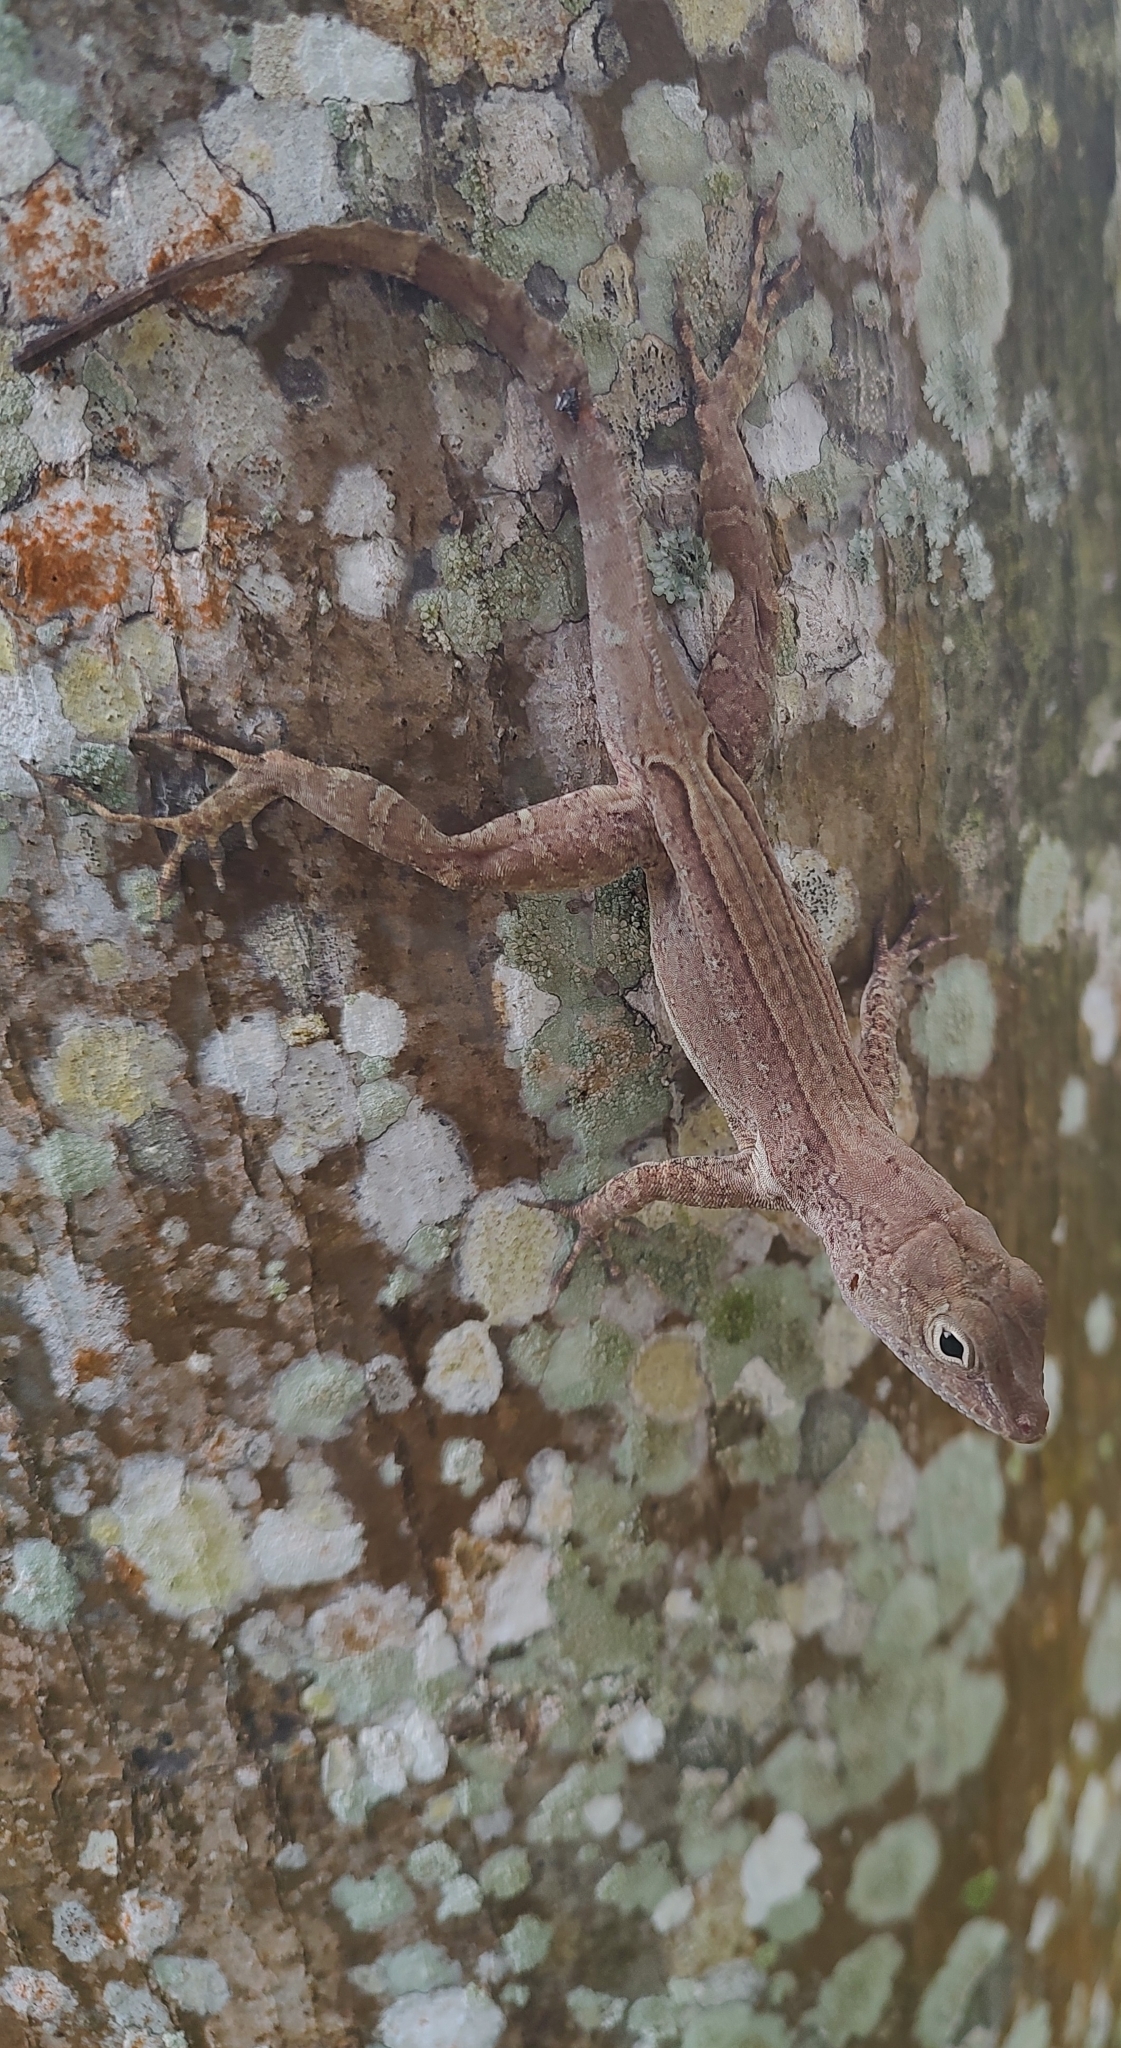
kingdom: Animalia
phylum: Chordata
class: Squamata
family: Dactyloidae
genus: Anolis
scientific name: Anolis cristatellus
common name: Crested anole
